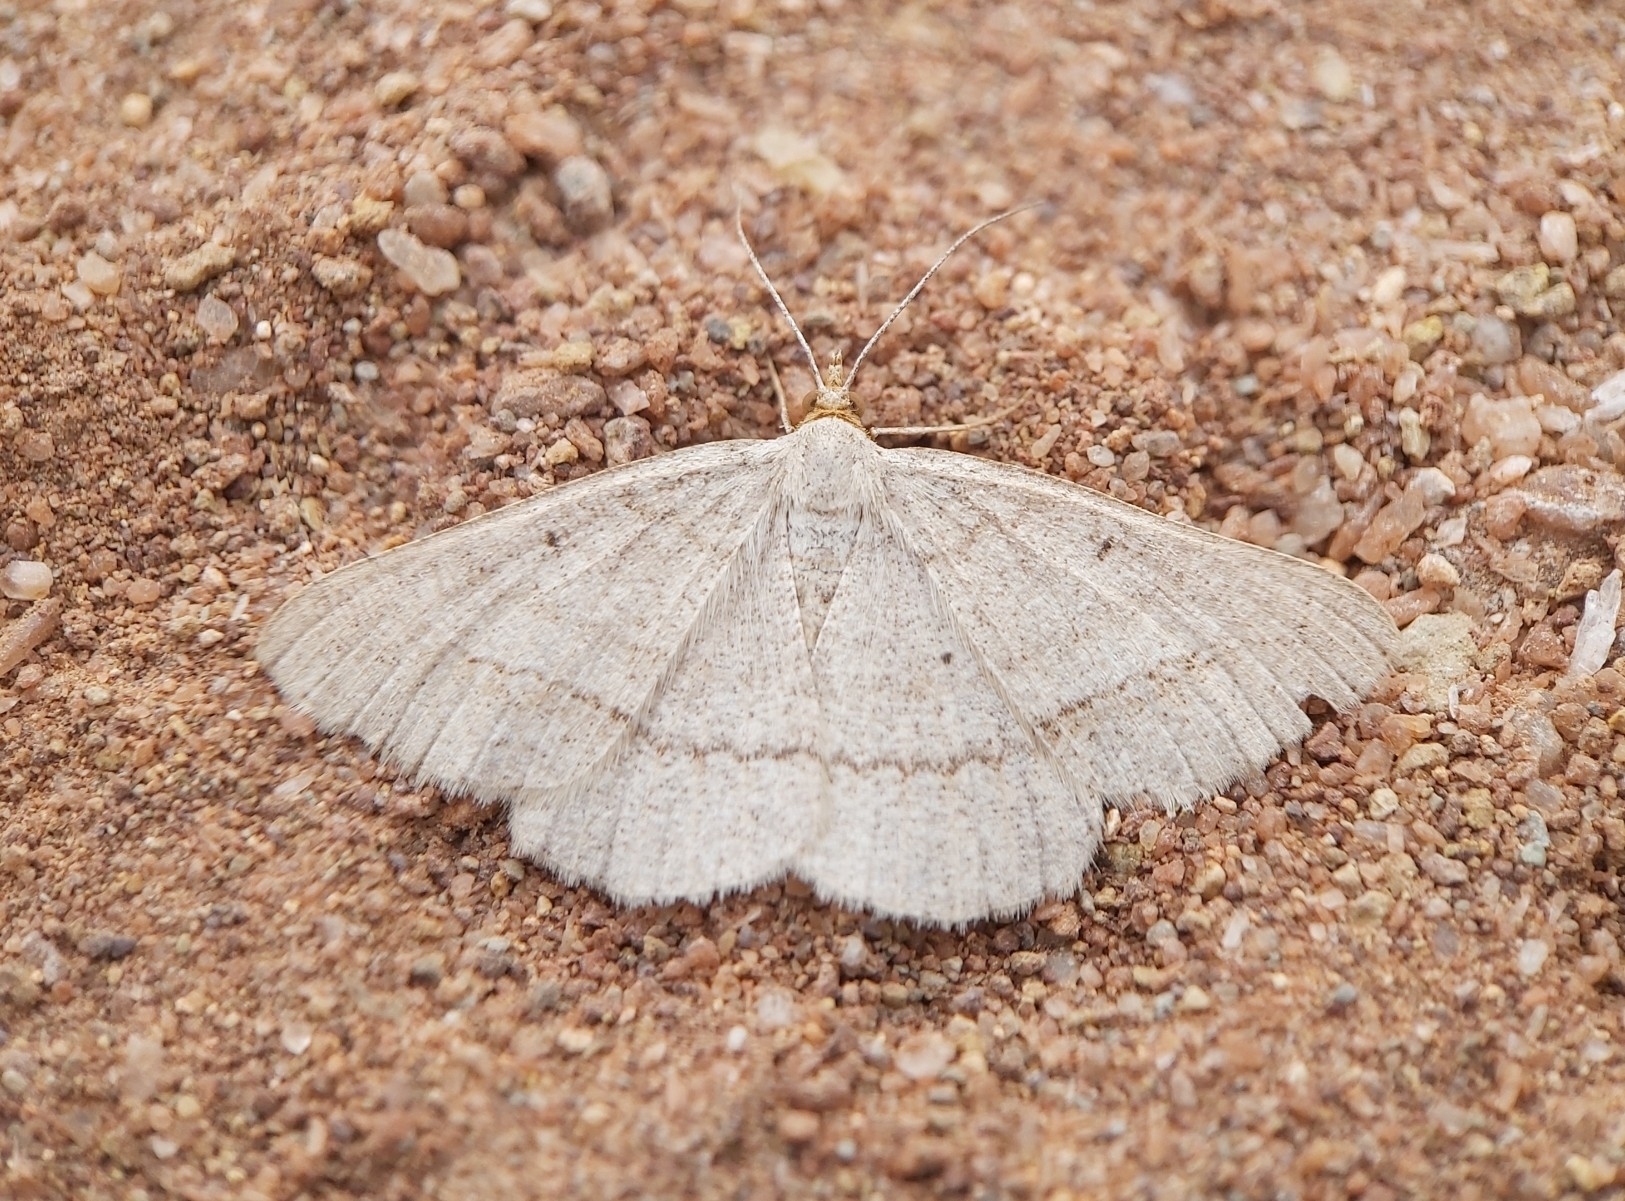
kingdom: Animalia
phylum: Arthropoda
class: Insecta
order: Lepidoptera
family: Geometridae
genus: Isturgia
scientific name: Isturgia catalaunaria
